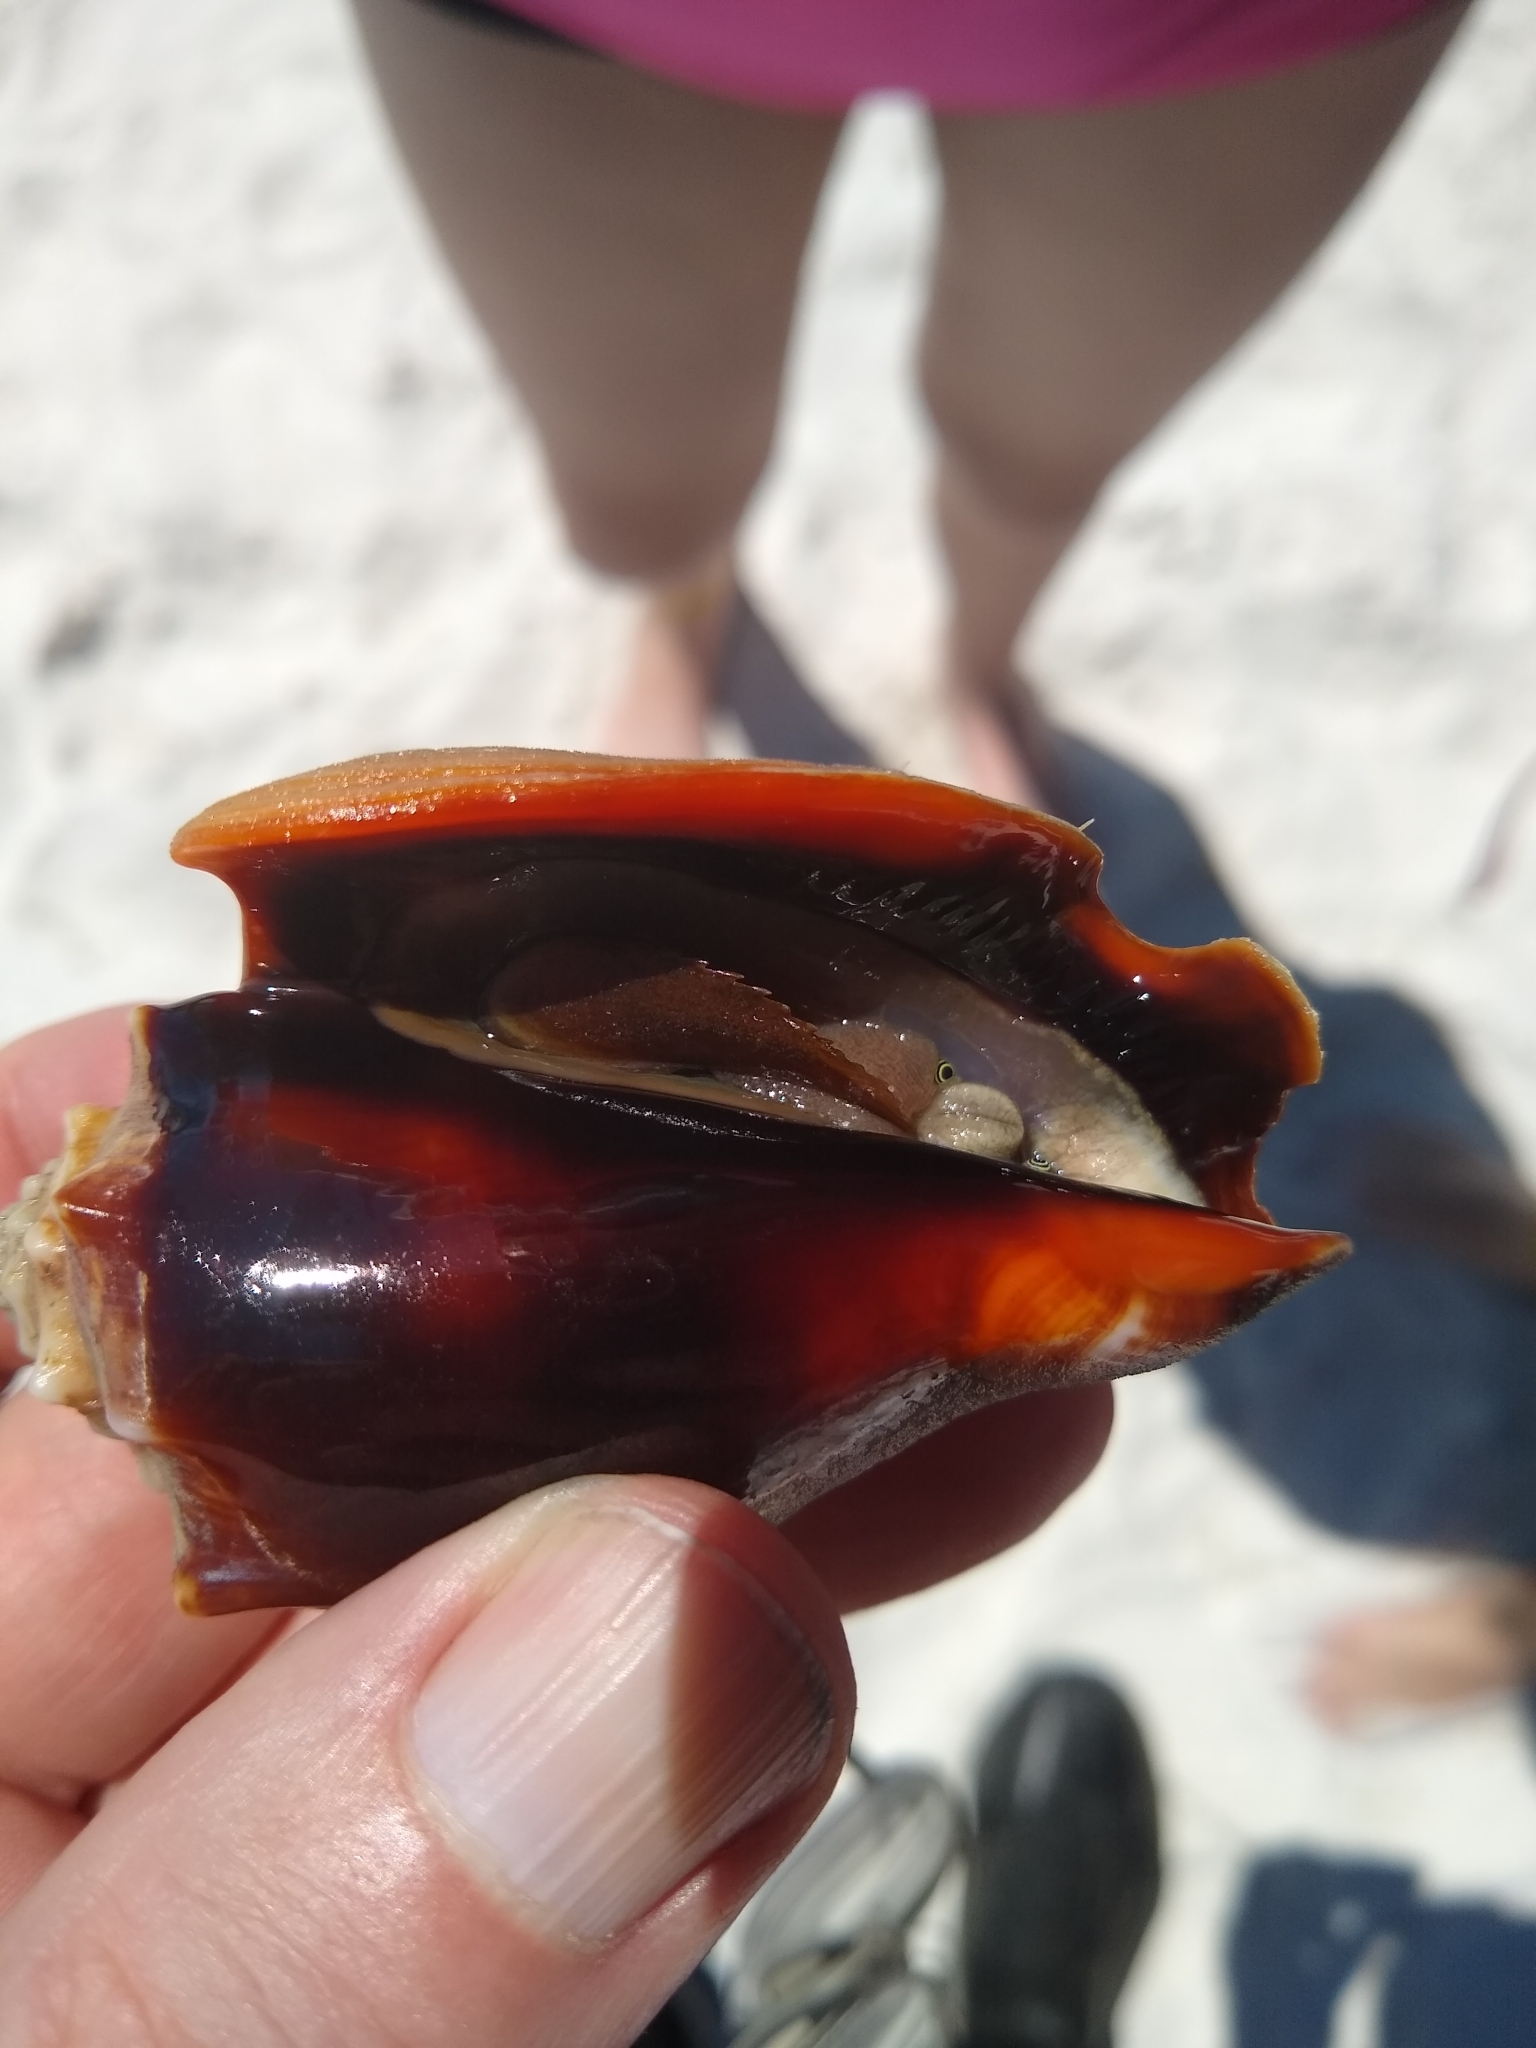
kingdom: Animalia
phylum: Mollusca
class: Gastropoda
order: Littorinimorpha
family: Strombidae
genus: Strombus
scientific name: Strombus alatus
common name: Florida fighting conch
